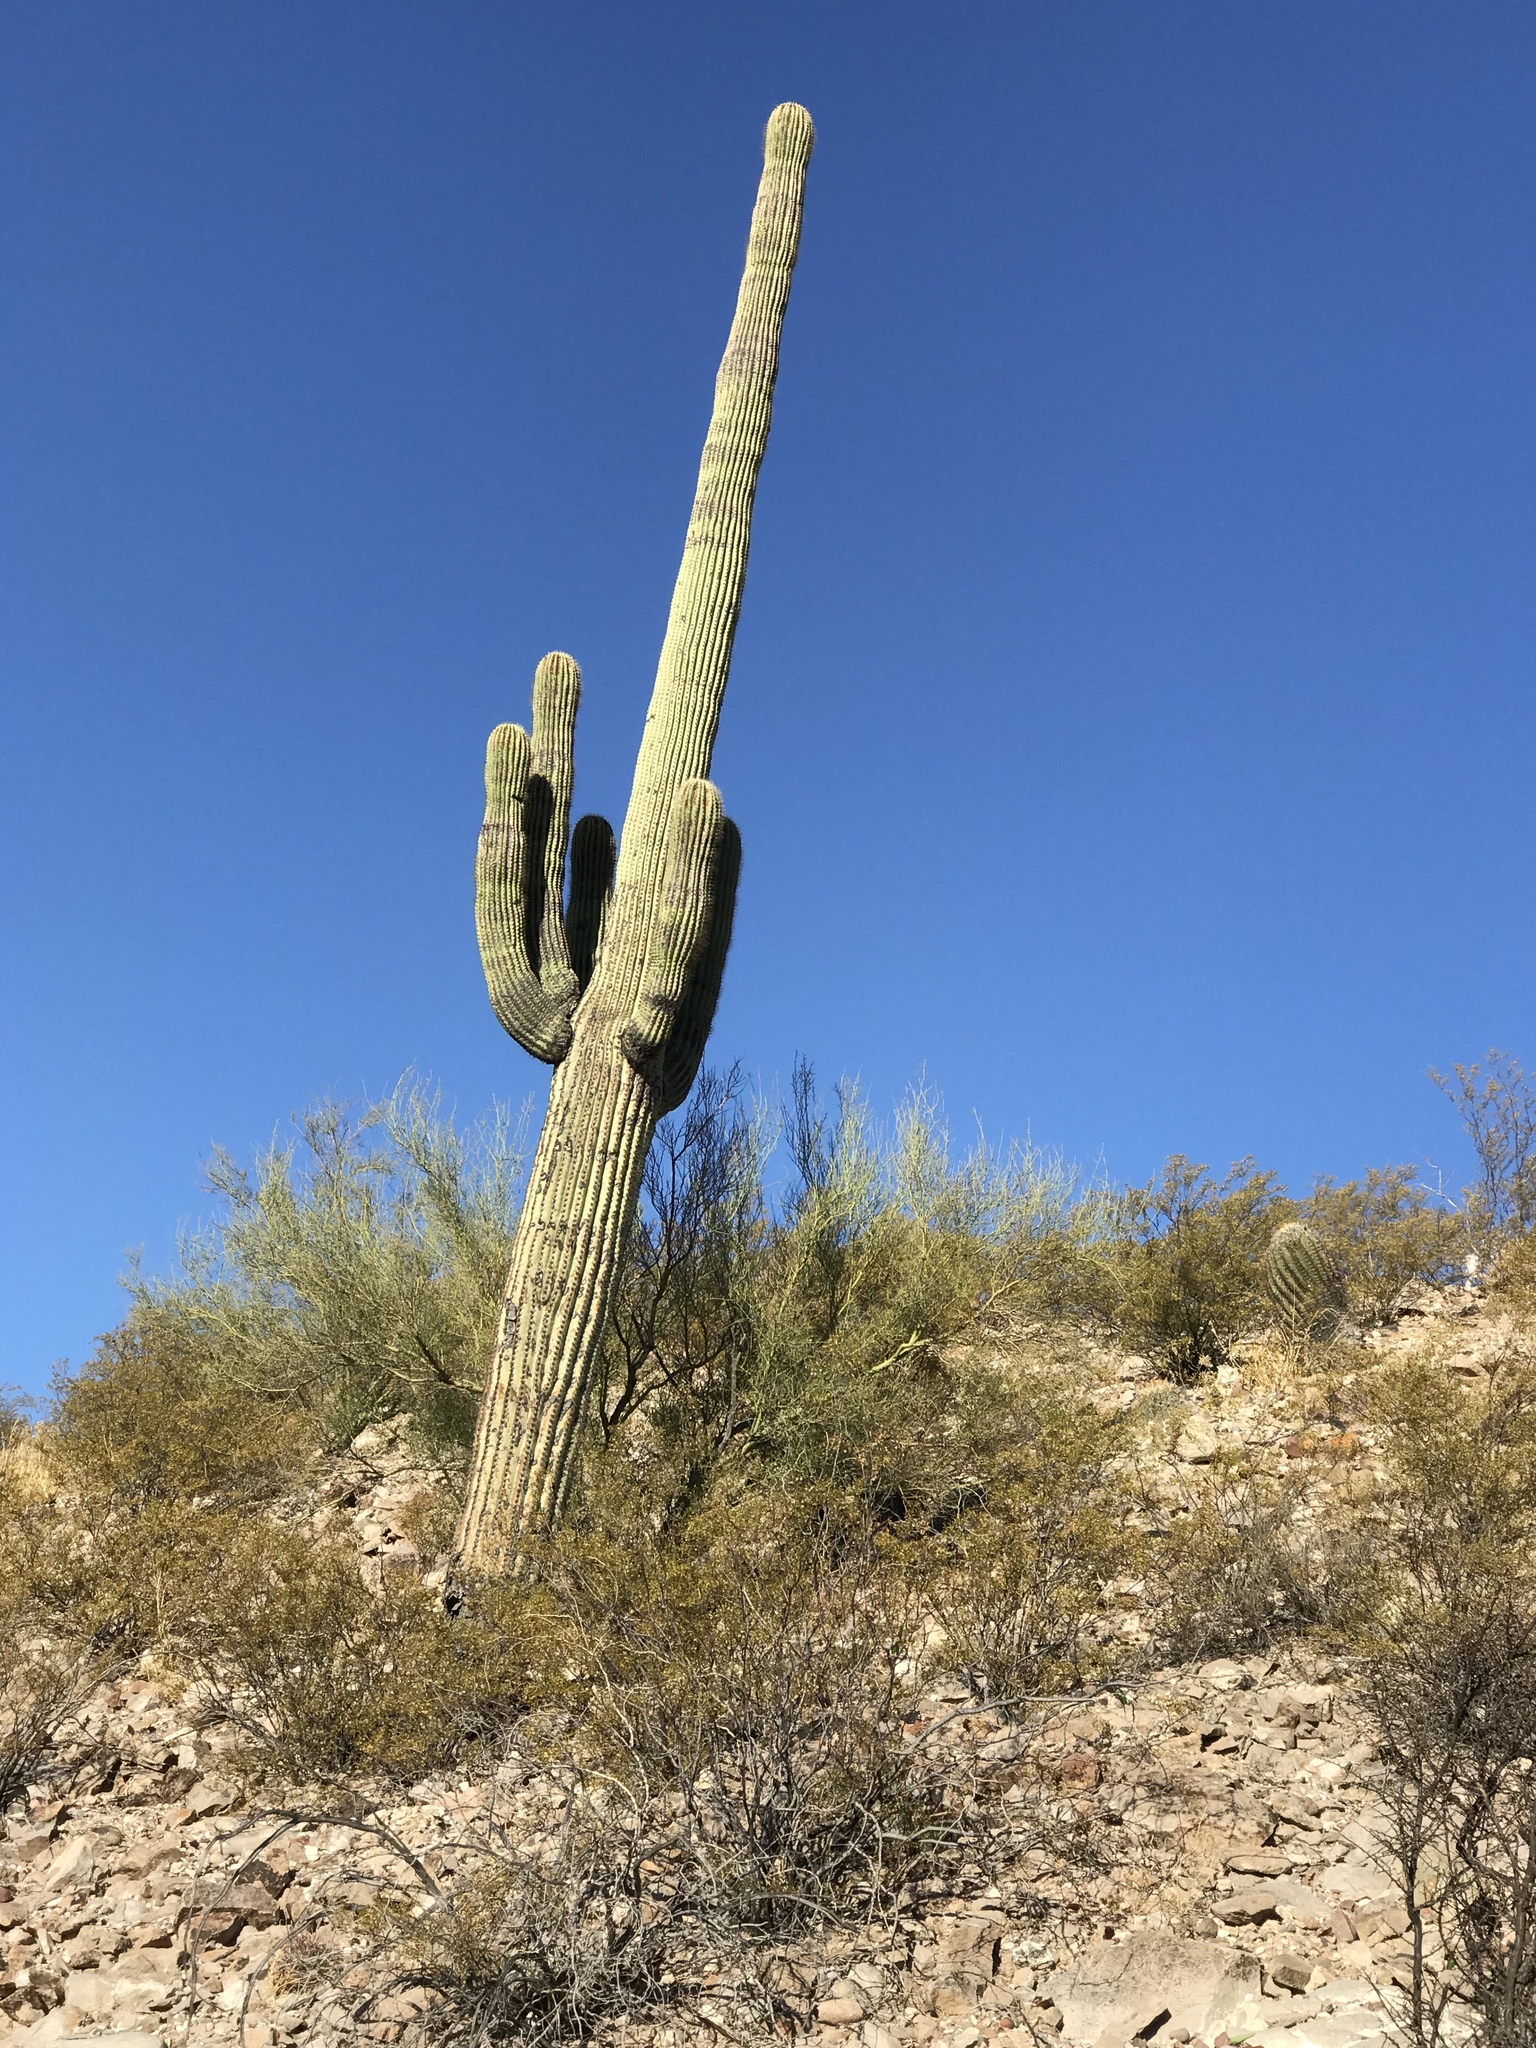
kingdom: Plantae
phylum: Tracheophyta
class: Magnoliopsida
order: Caryophyllales
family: Cactaceae
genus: Carnegiea
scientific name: Carnegiea gigantea
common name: Saguaro
